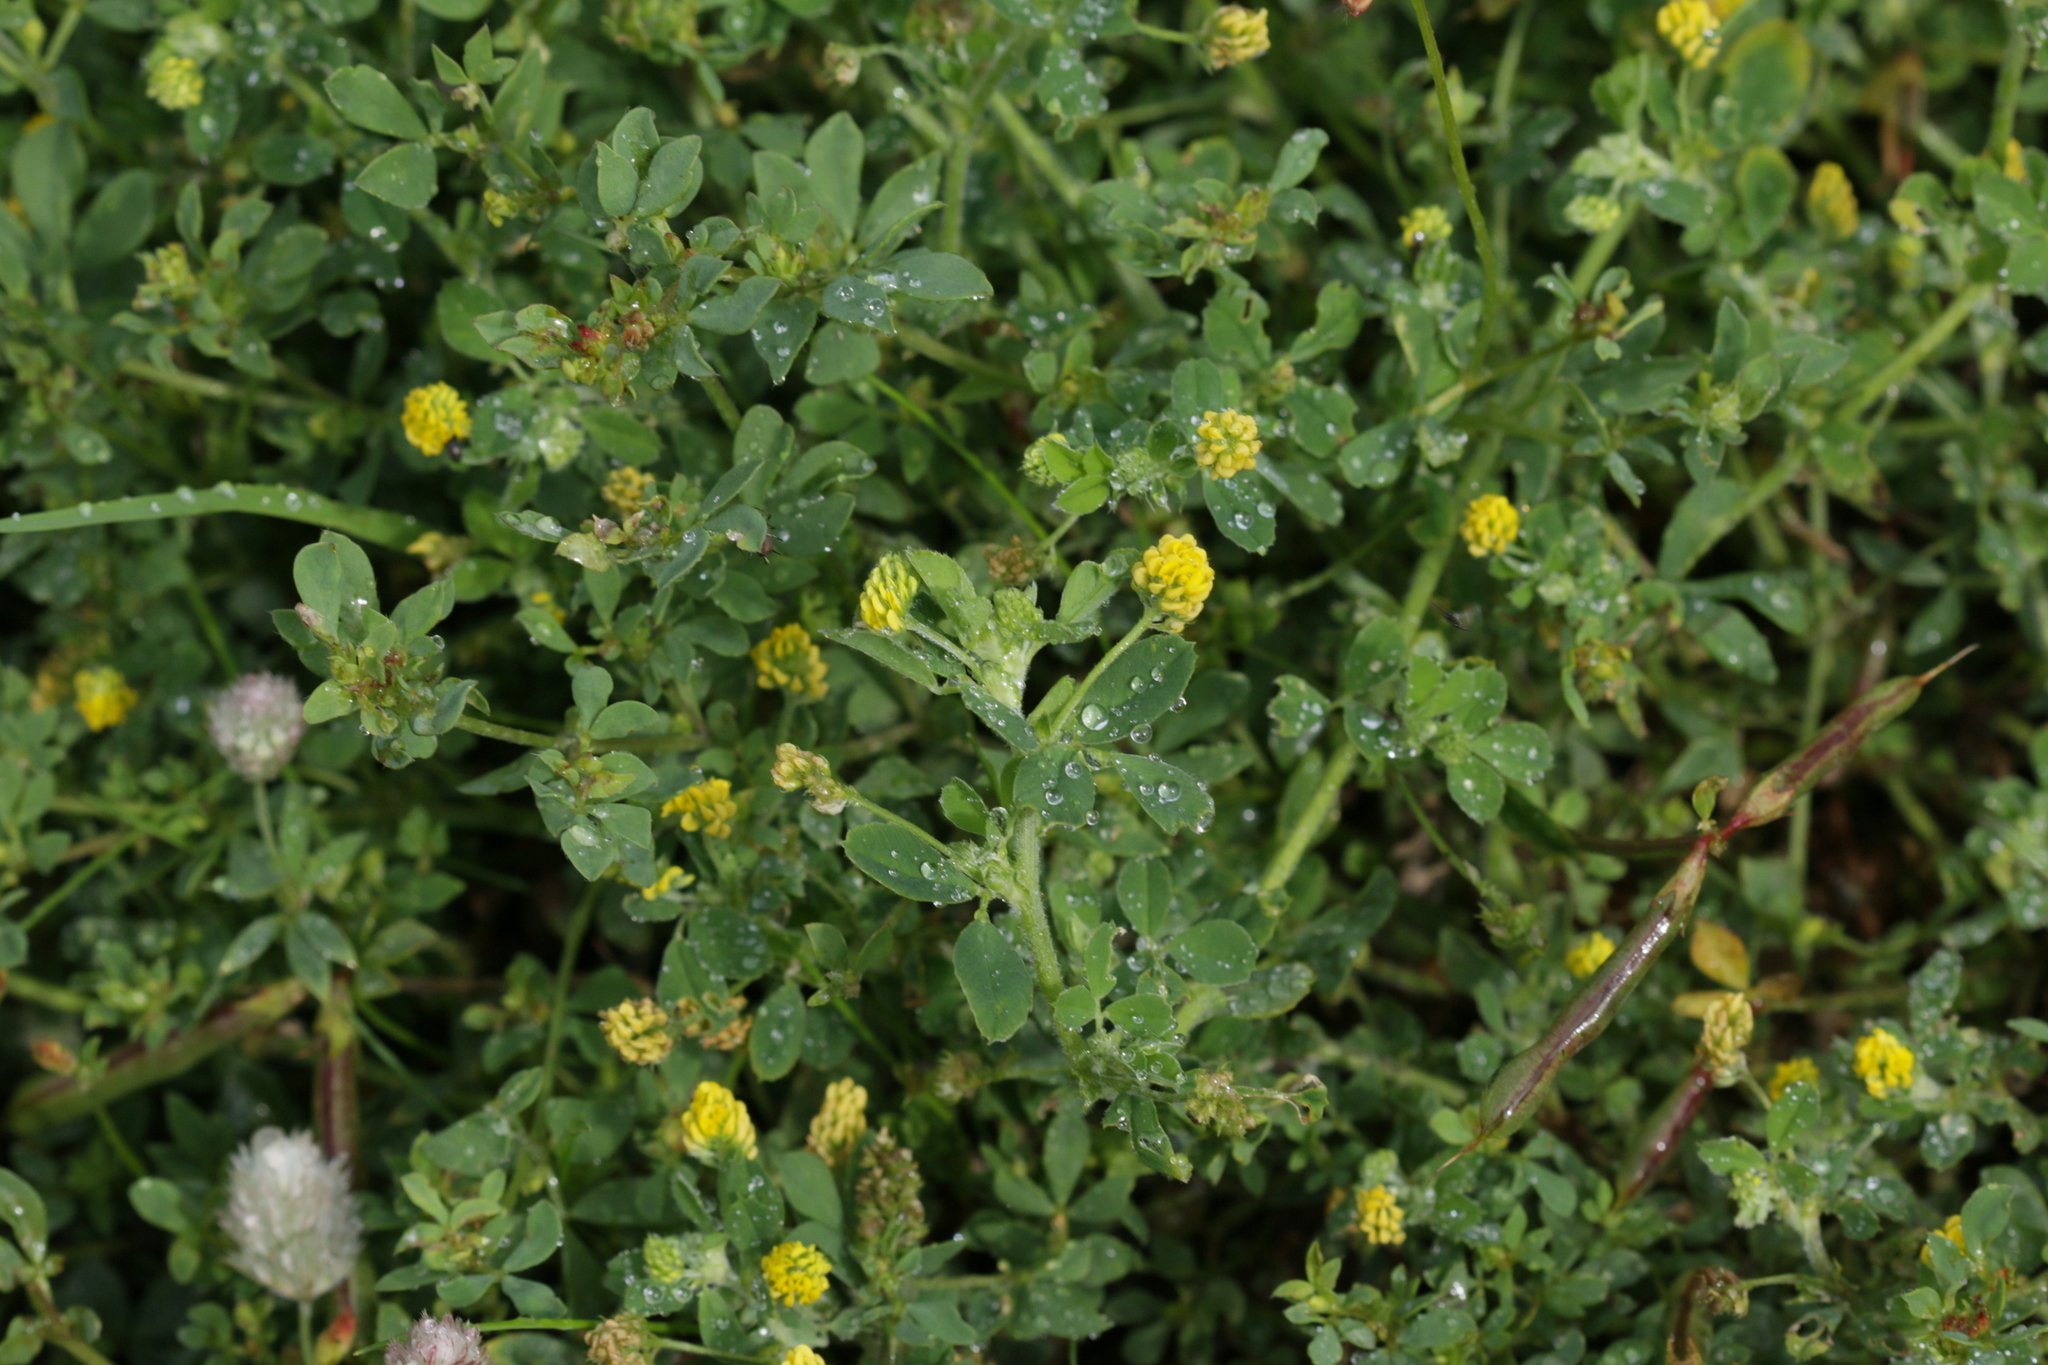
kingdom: Plantae
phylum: Tracheophyta
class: Magnoliopsida
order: Fabales
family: Fabaceae
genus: Medicago
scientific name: Medicago lupulina
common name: Black medick
